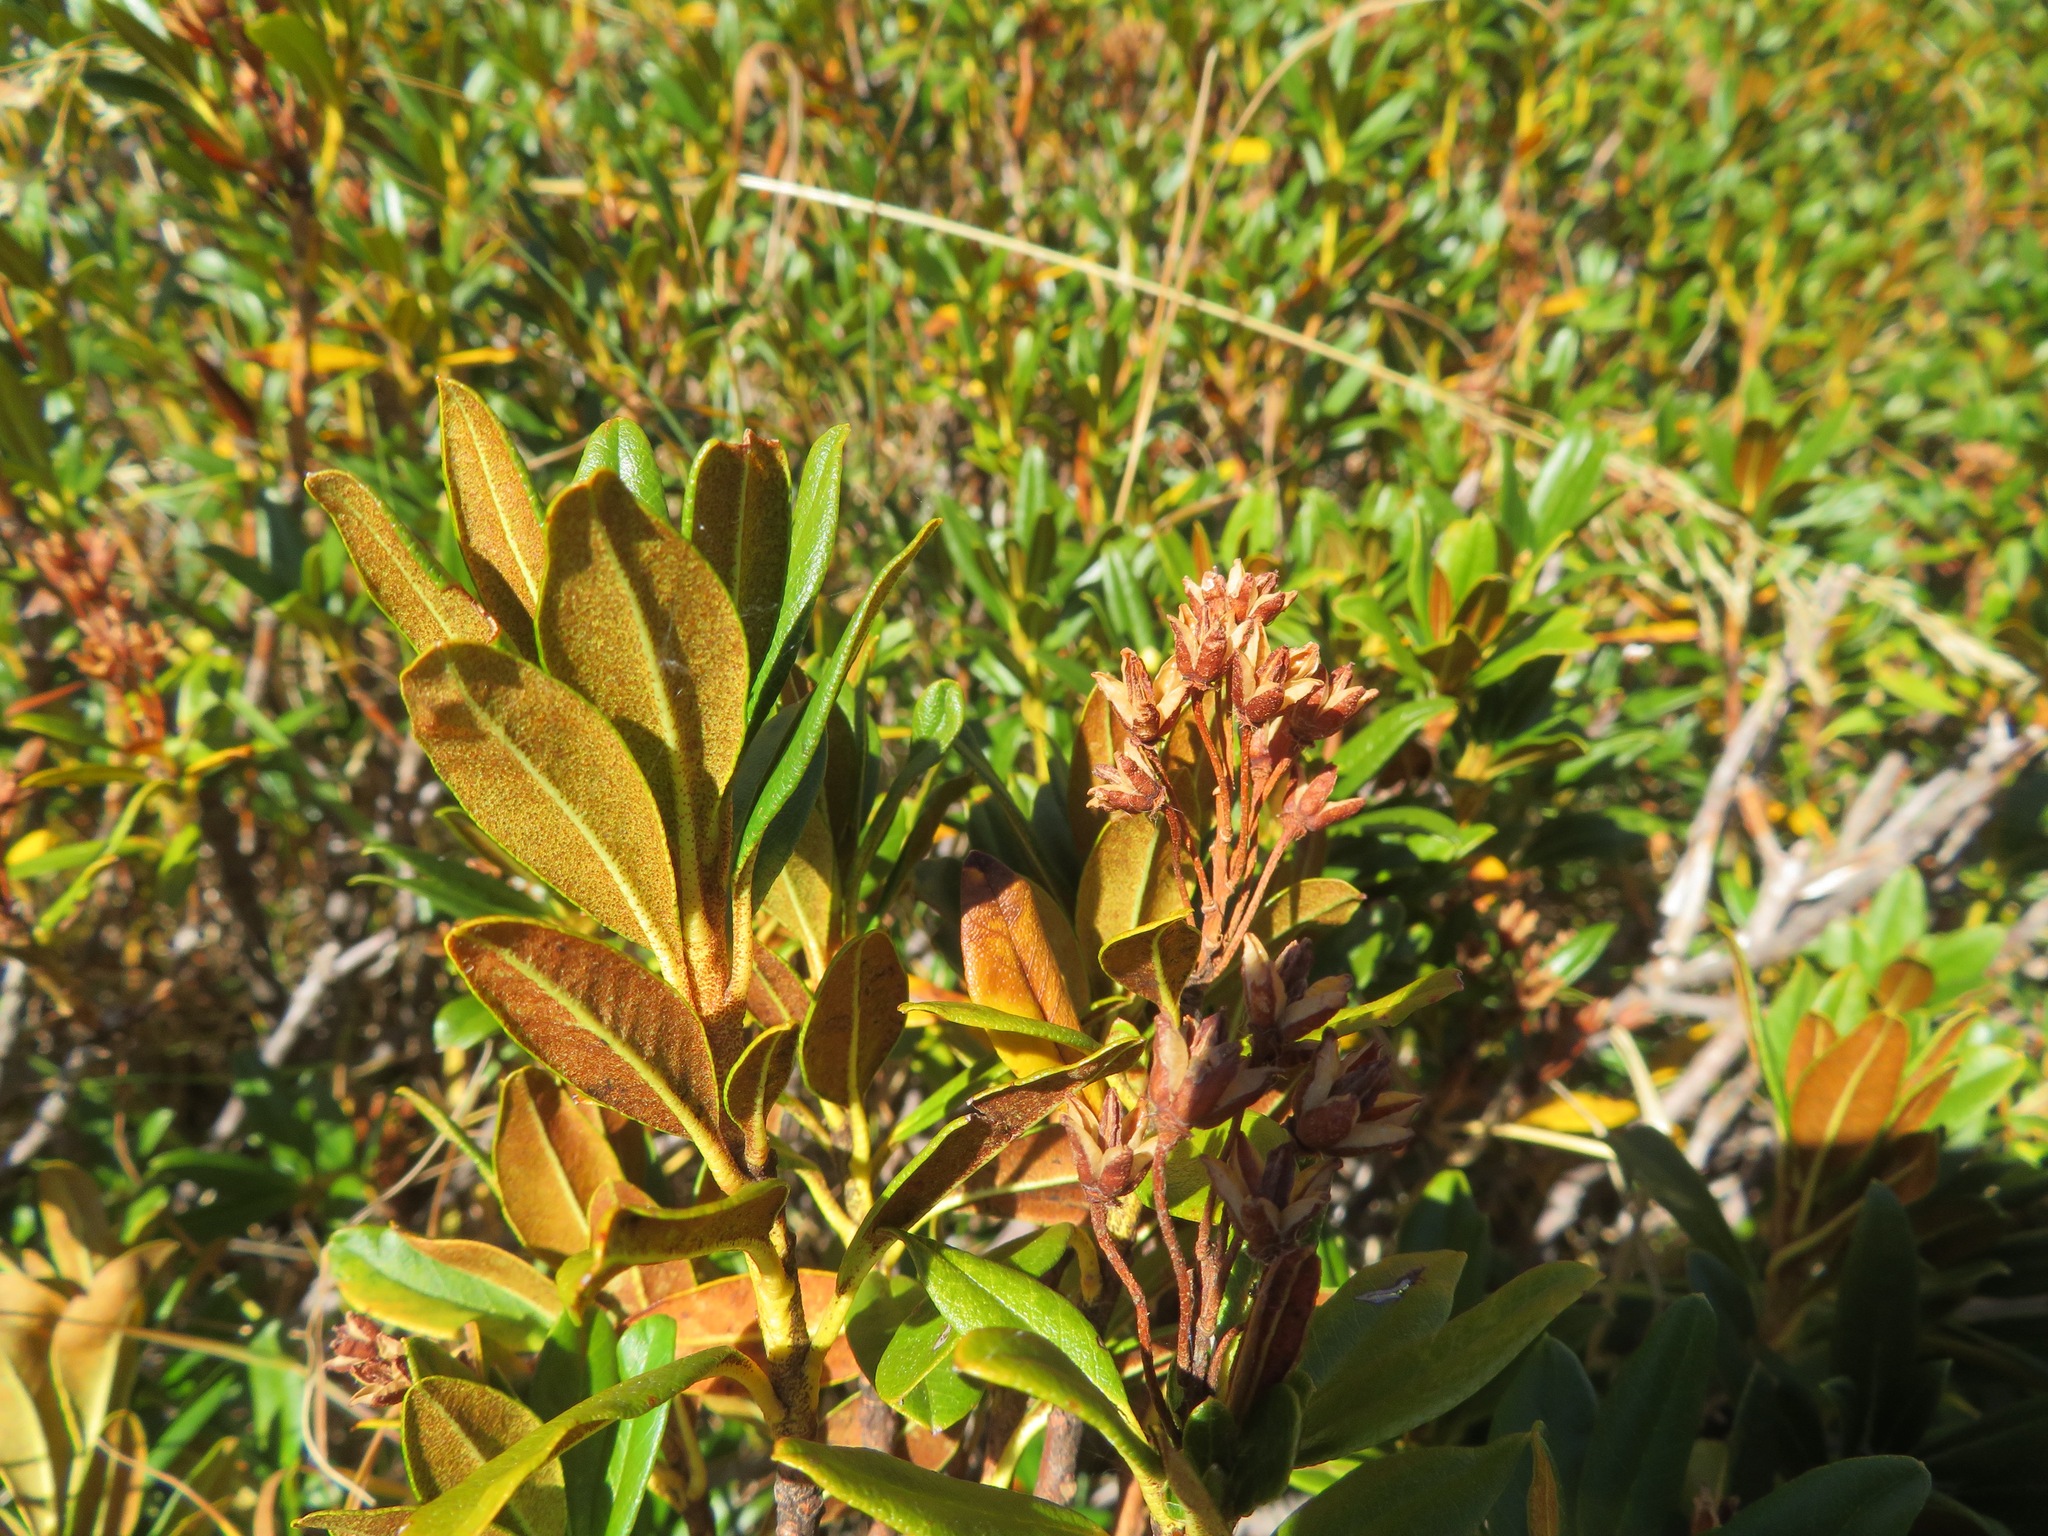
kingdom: Plantae
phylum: Tracheophyta
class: Magnoliopsida
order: Ericales
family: Ericaceae
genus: Rhododendron
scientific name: Rhododendron ferrugineum
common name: Alpenrose
